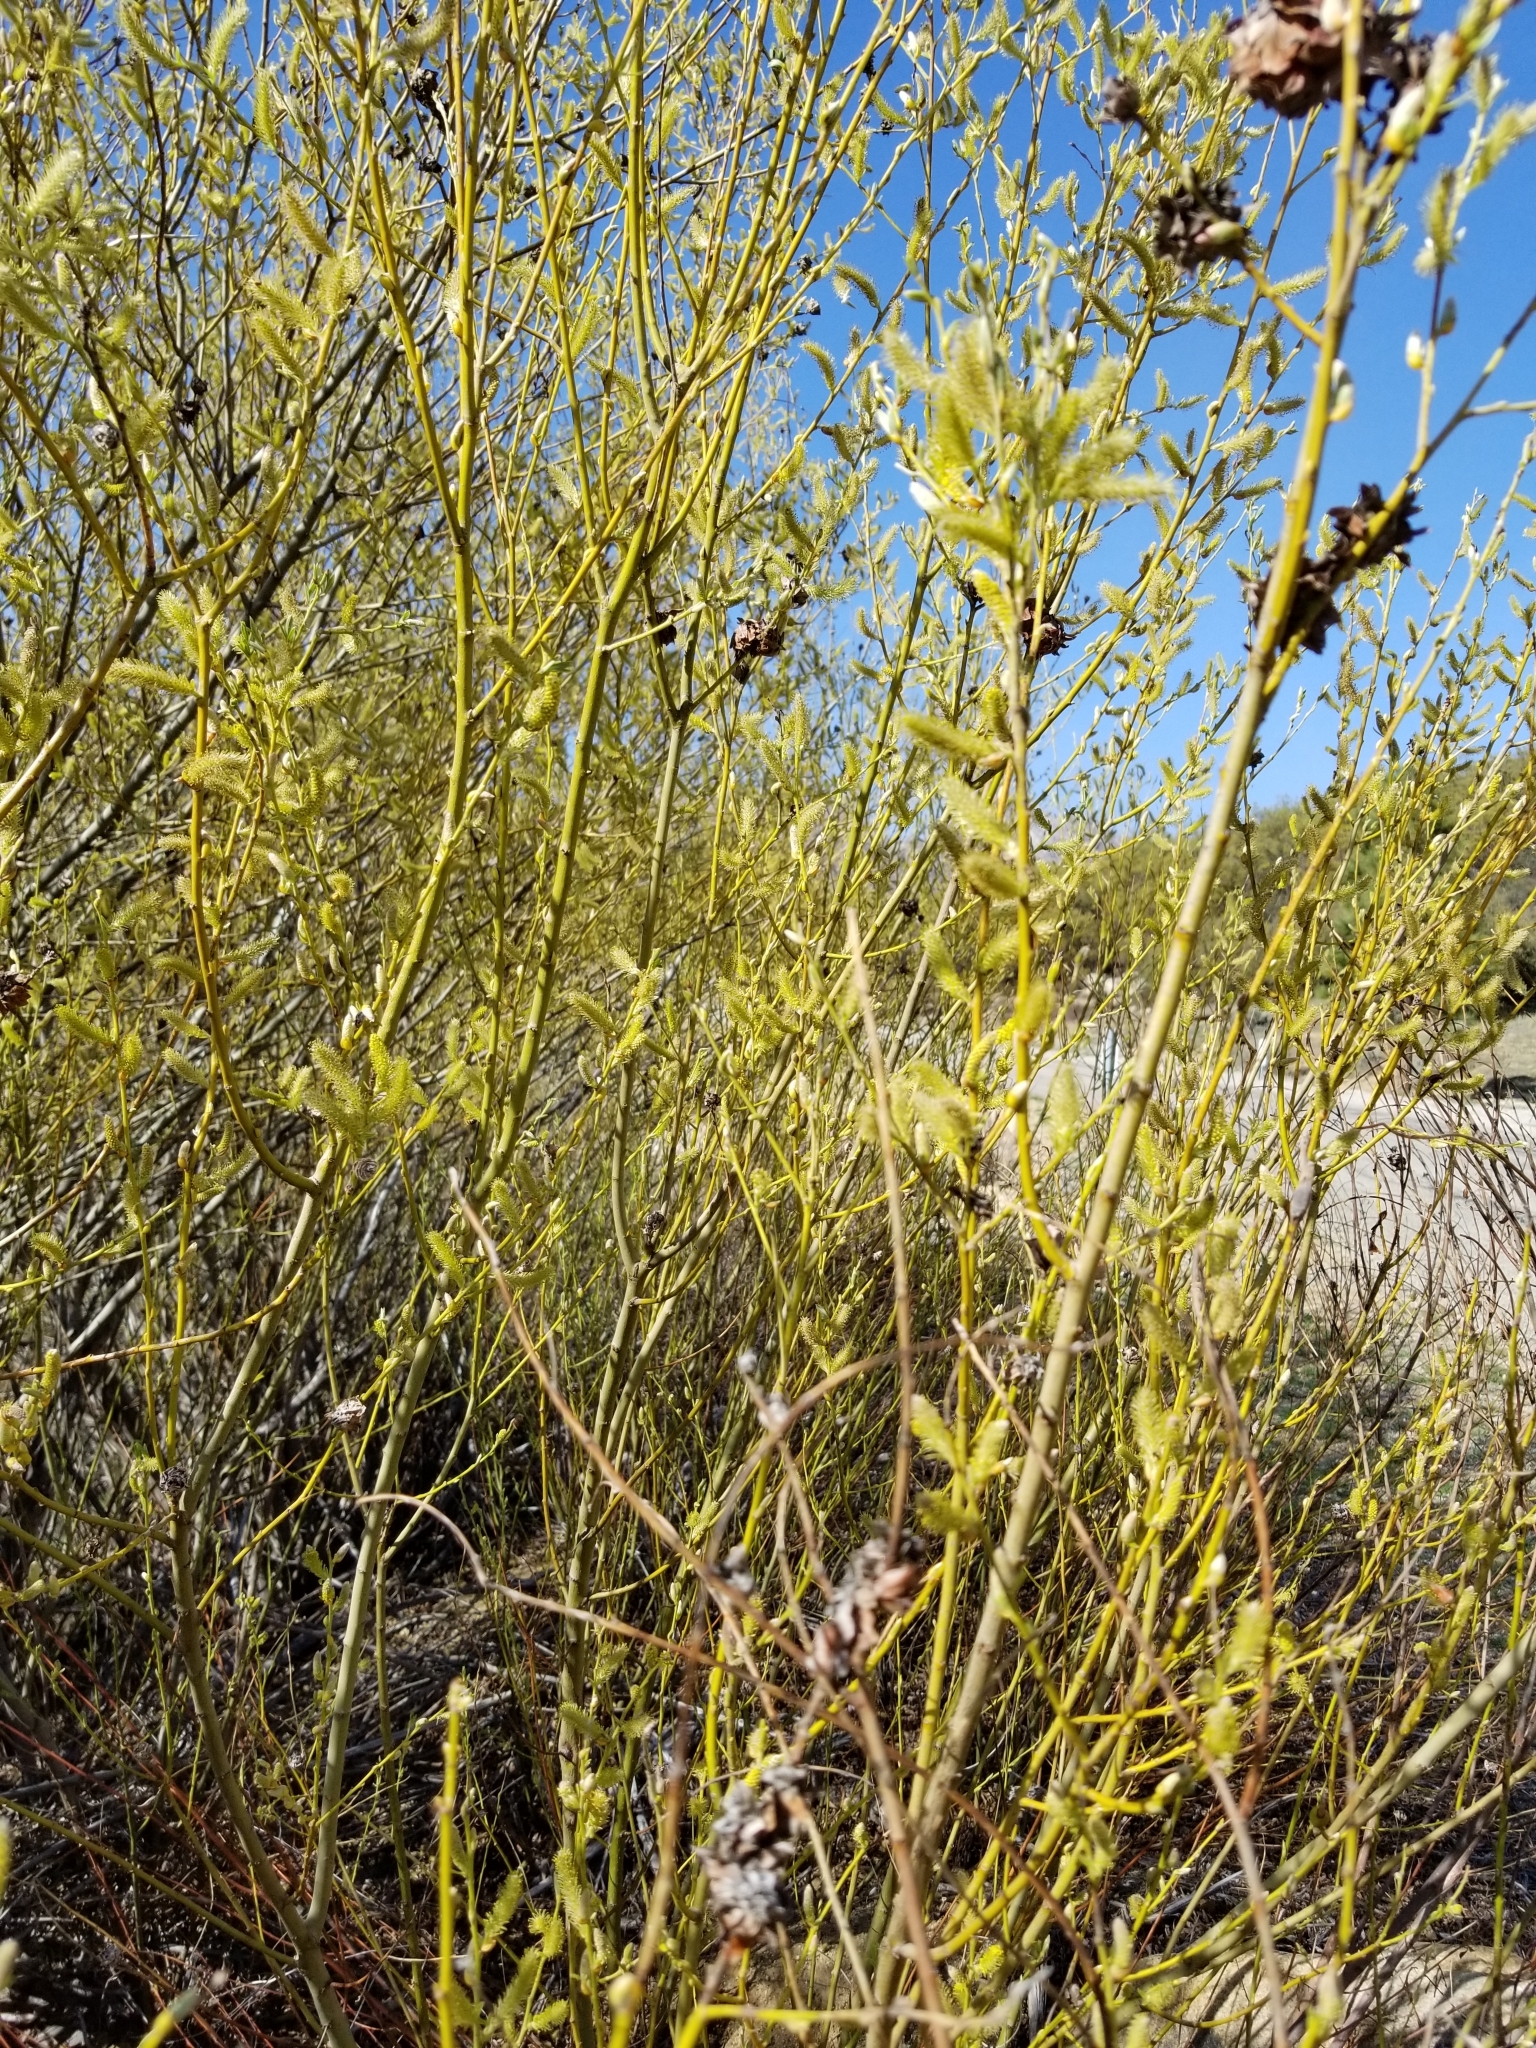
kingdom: Plantae
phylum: Tracheophyta
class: Magnoliopsida
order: Malpighiales
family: Salicaceae
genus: Salix
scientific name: Salix lasiolepis
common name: Arroyo willow
